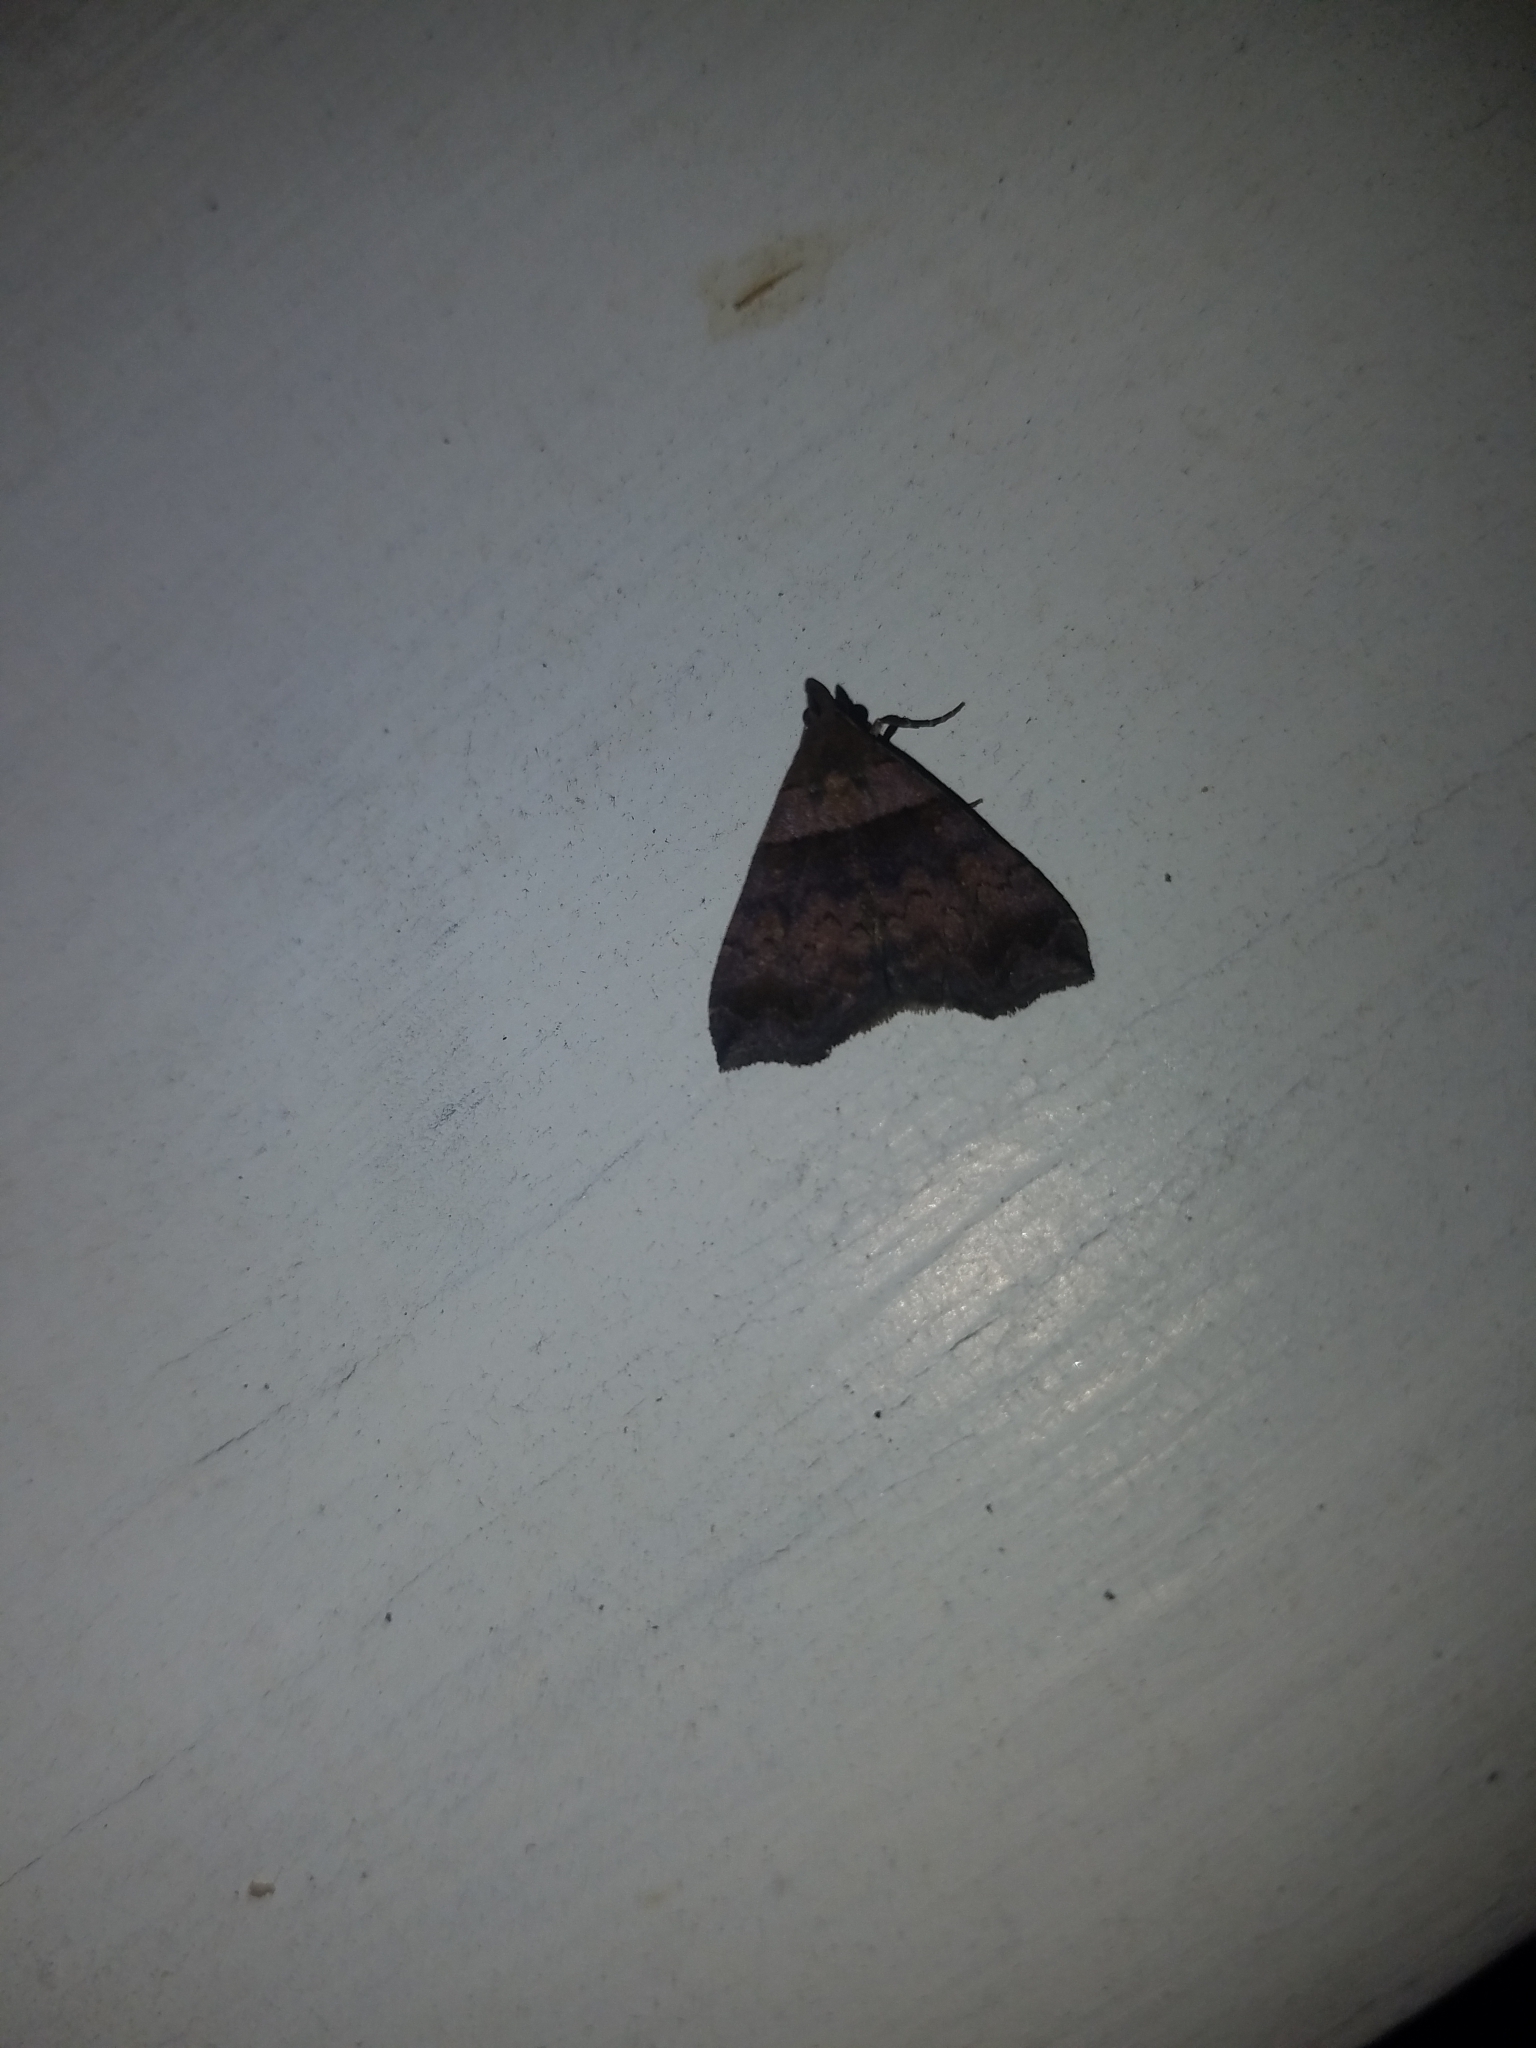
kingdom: Animalia
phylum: Arthropoda
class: Insecta
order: Lepidoptera
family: Erebidae
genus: Phaeolita
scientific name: Phaeolita pyramusalis
